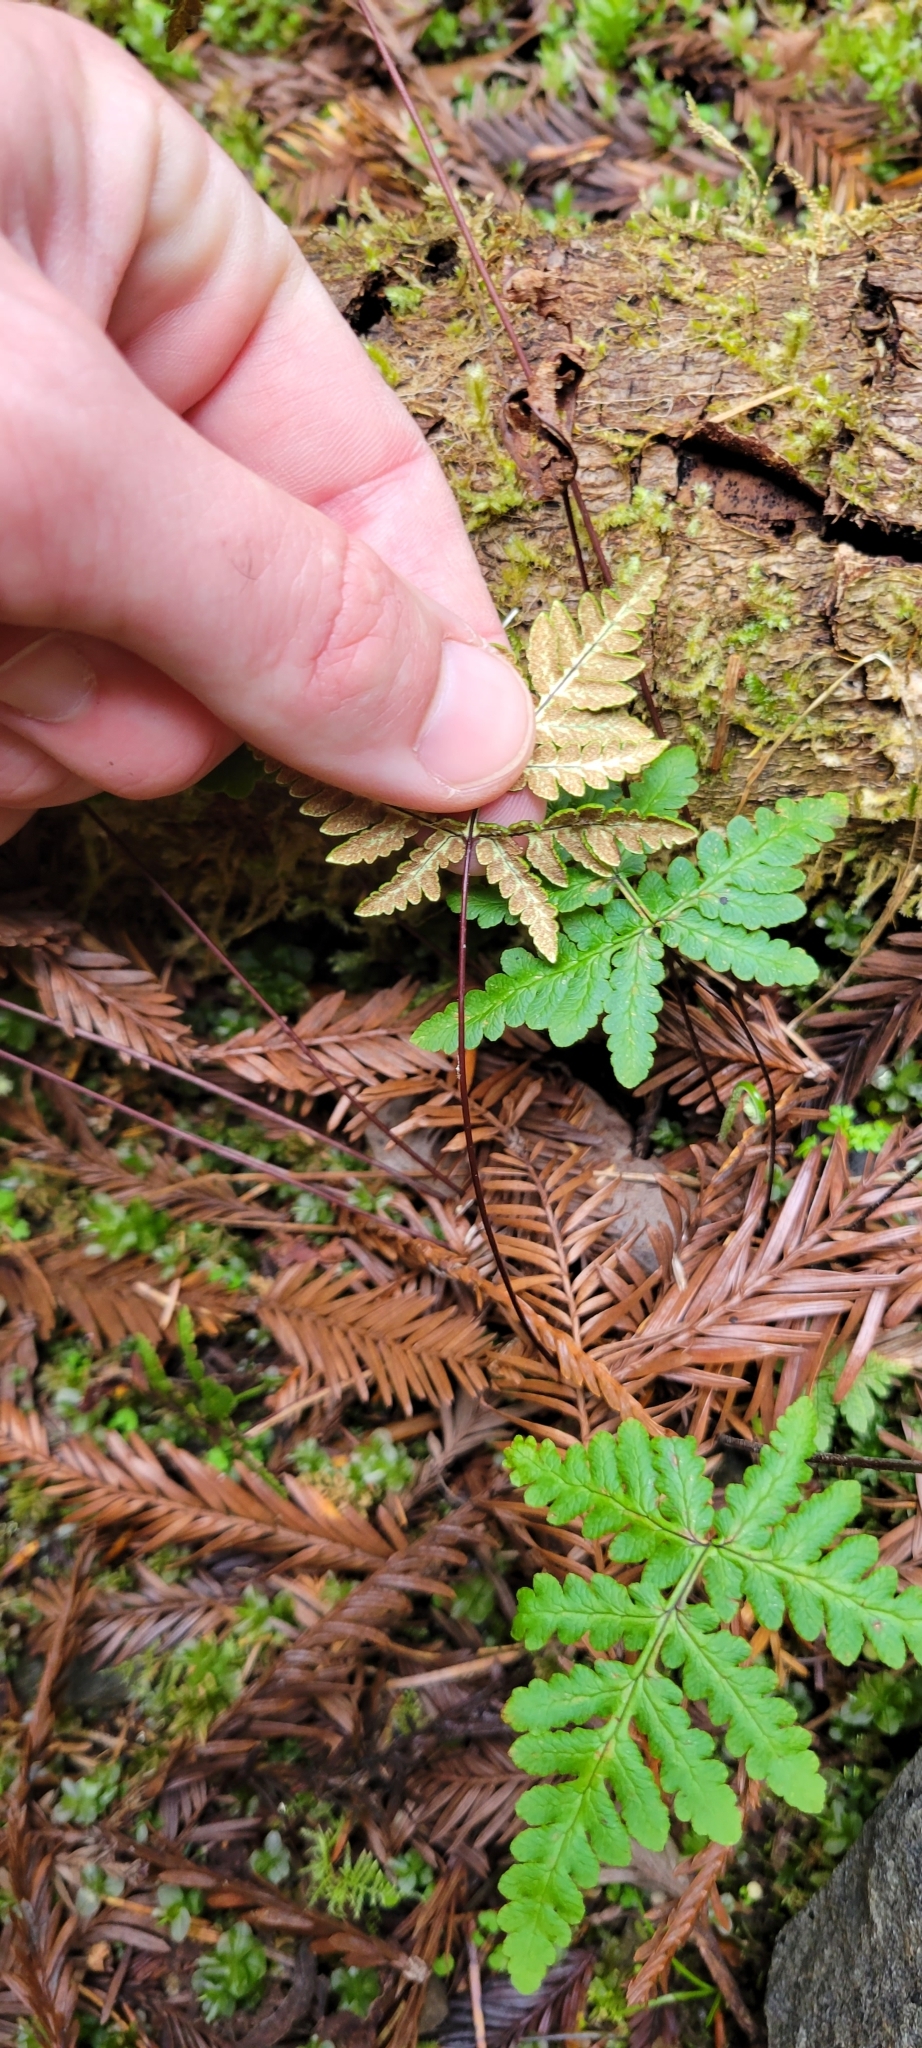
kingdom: Plantae
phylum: Tracheophyta
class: Polypodiopsida
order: Polypodiales
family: Pteridaceae
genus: Pentagramma
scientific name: Pentagramma triangularis
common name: Gold fern
